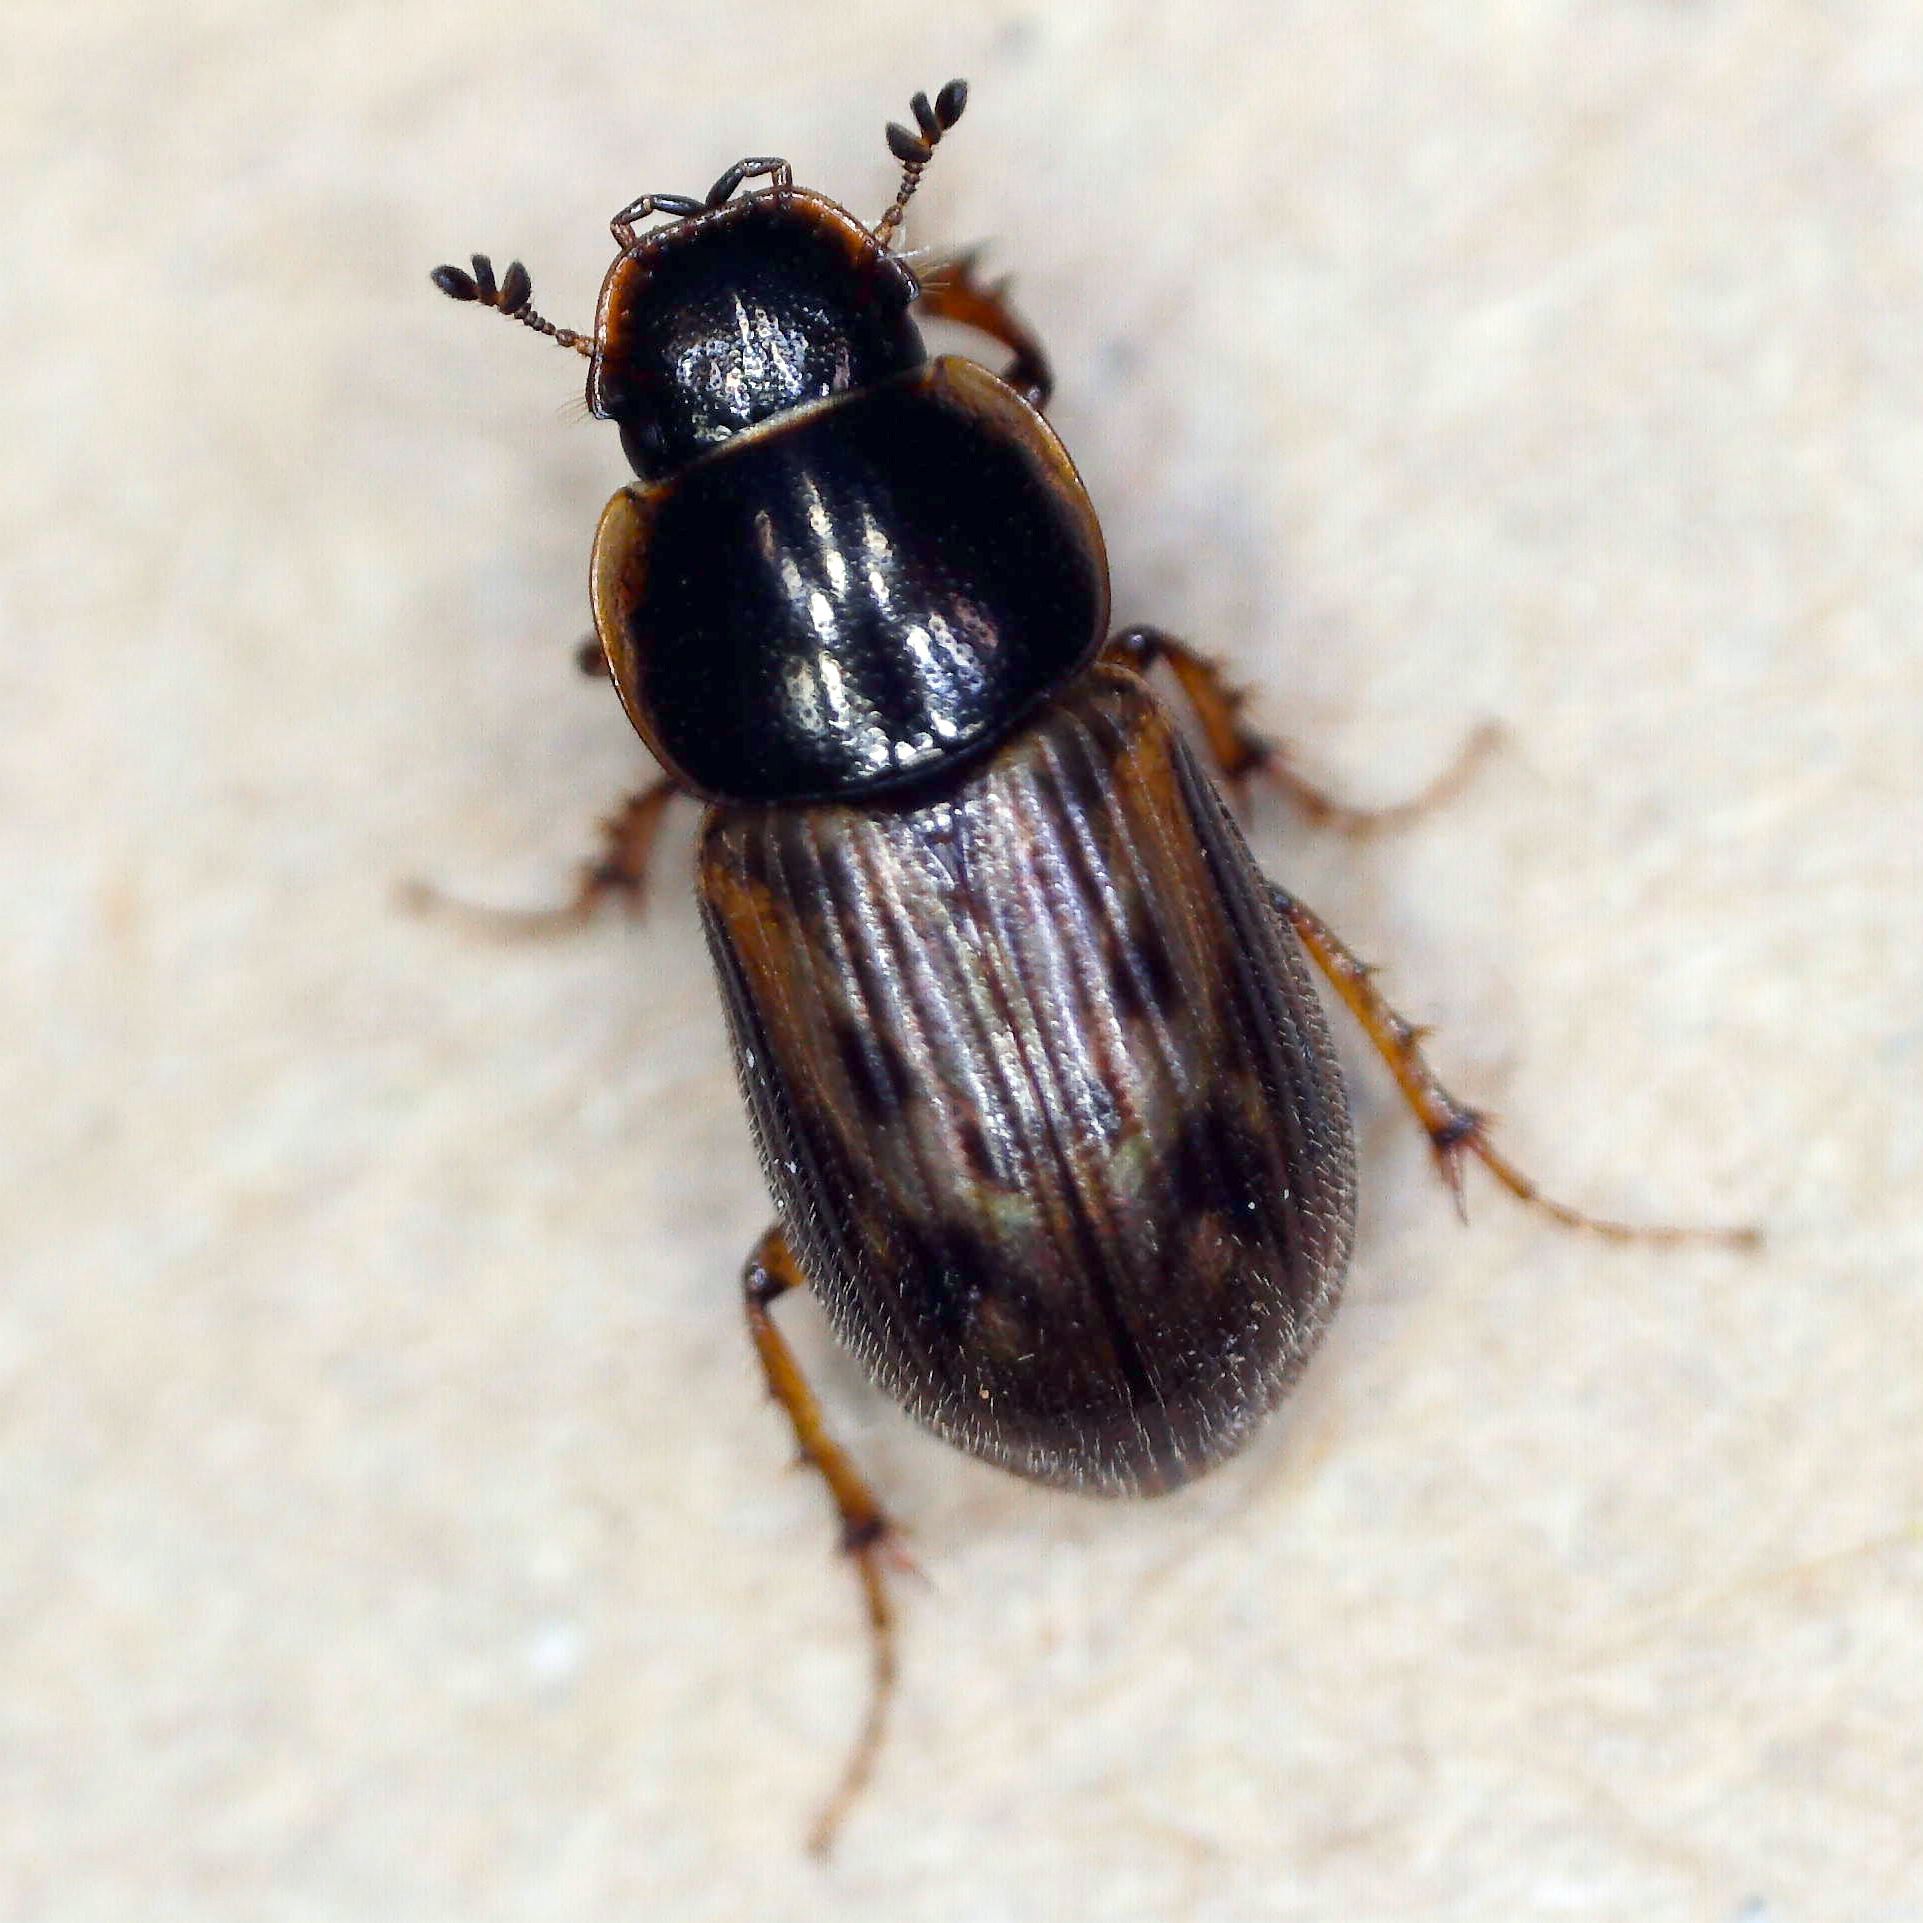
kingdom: Animalia
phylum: Arthropoda
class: Insecta
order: Coleoptera
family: Scarabaeidae
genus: Nimbus
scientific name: Nimbus obliteratus
